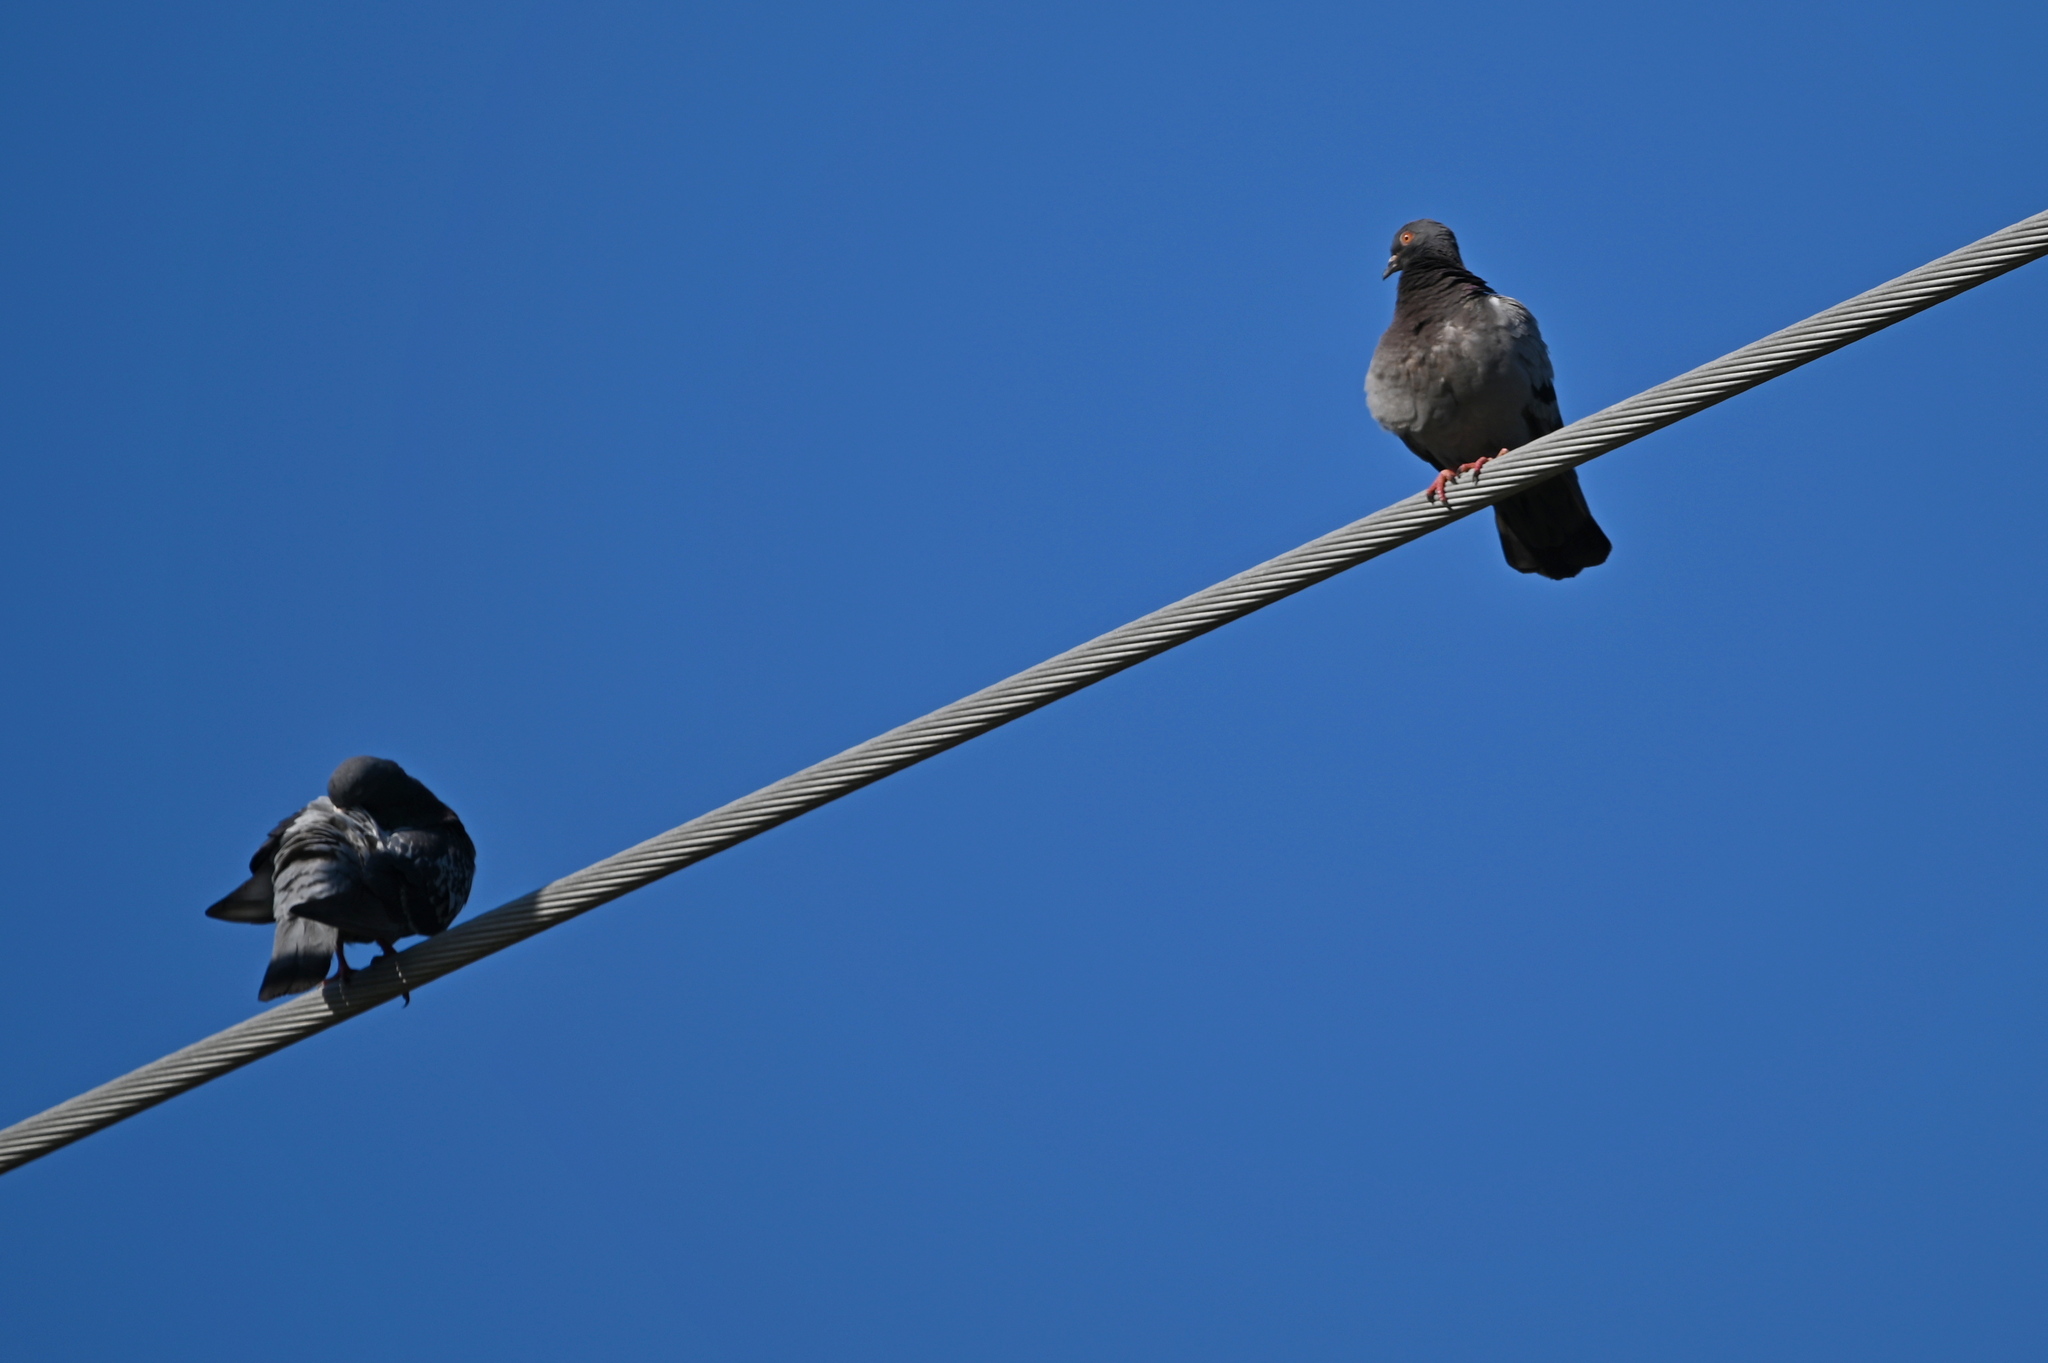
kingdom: Animalia
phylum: Chordata
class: Aves
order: Columbiformes
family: Columbidae
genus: Columba
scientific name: Columba livia
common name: Rock pigeon
